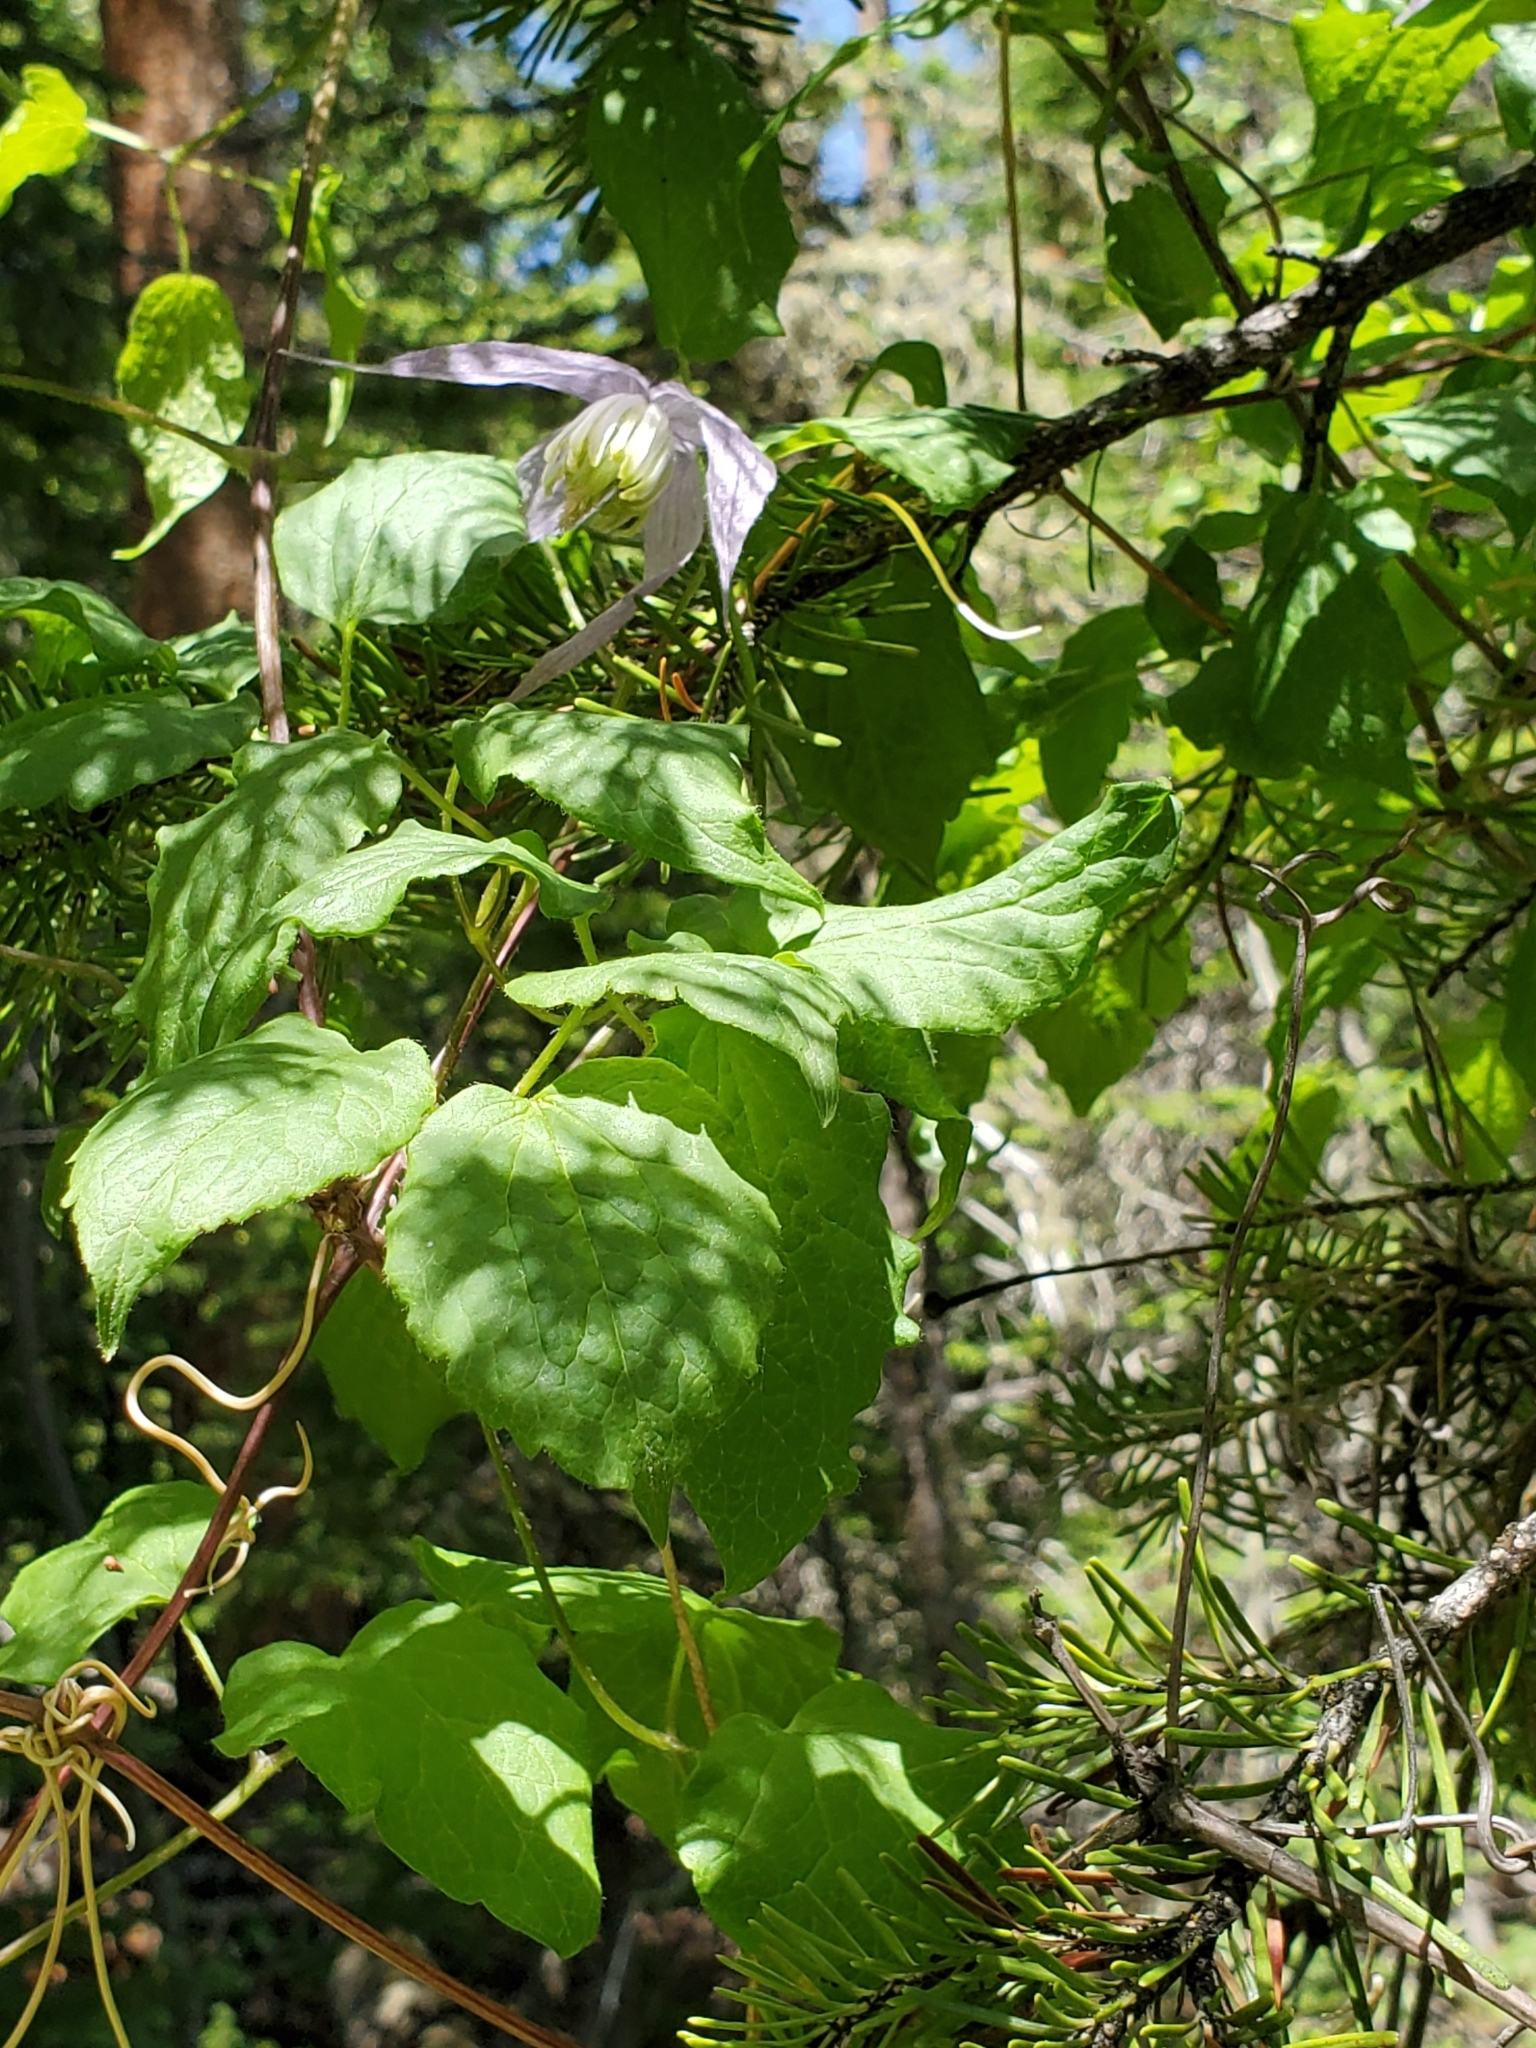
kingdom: Plantae
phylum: Tracheophyta
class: Magnoliopsida
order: Ranunculales
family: Ranunculaceae
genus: Clematis
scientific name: Clematis occidentalis
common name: Purple clematis
